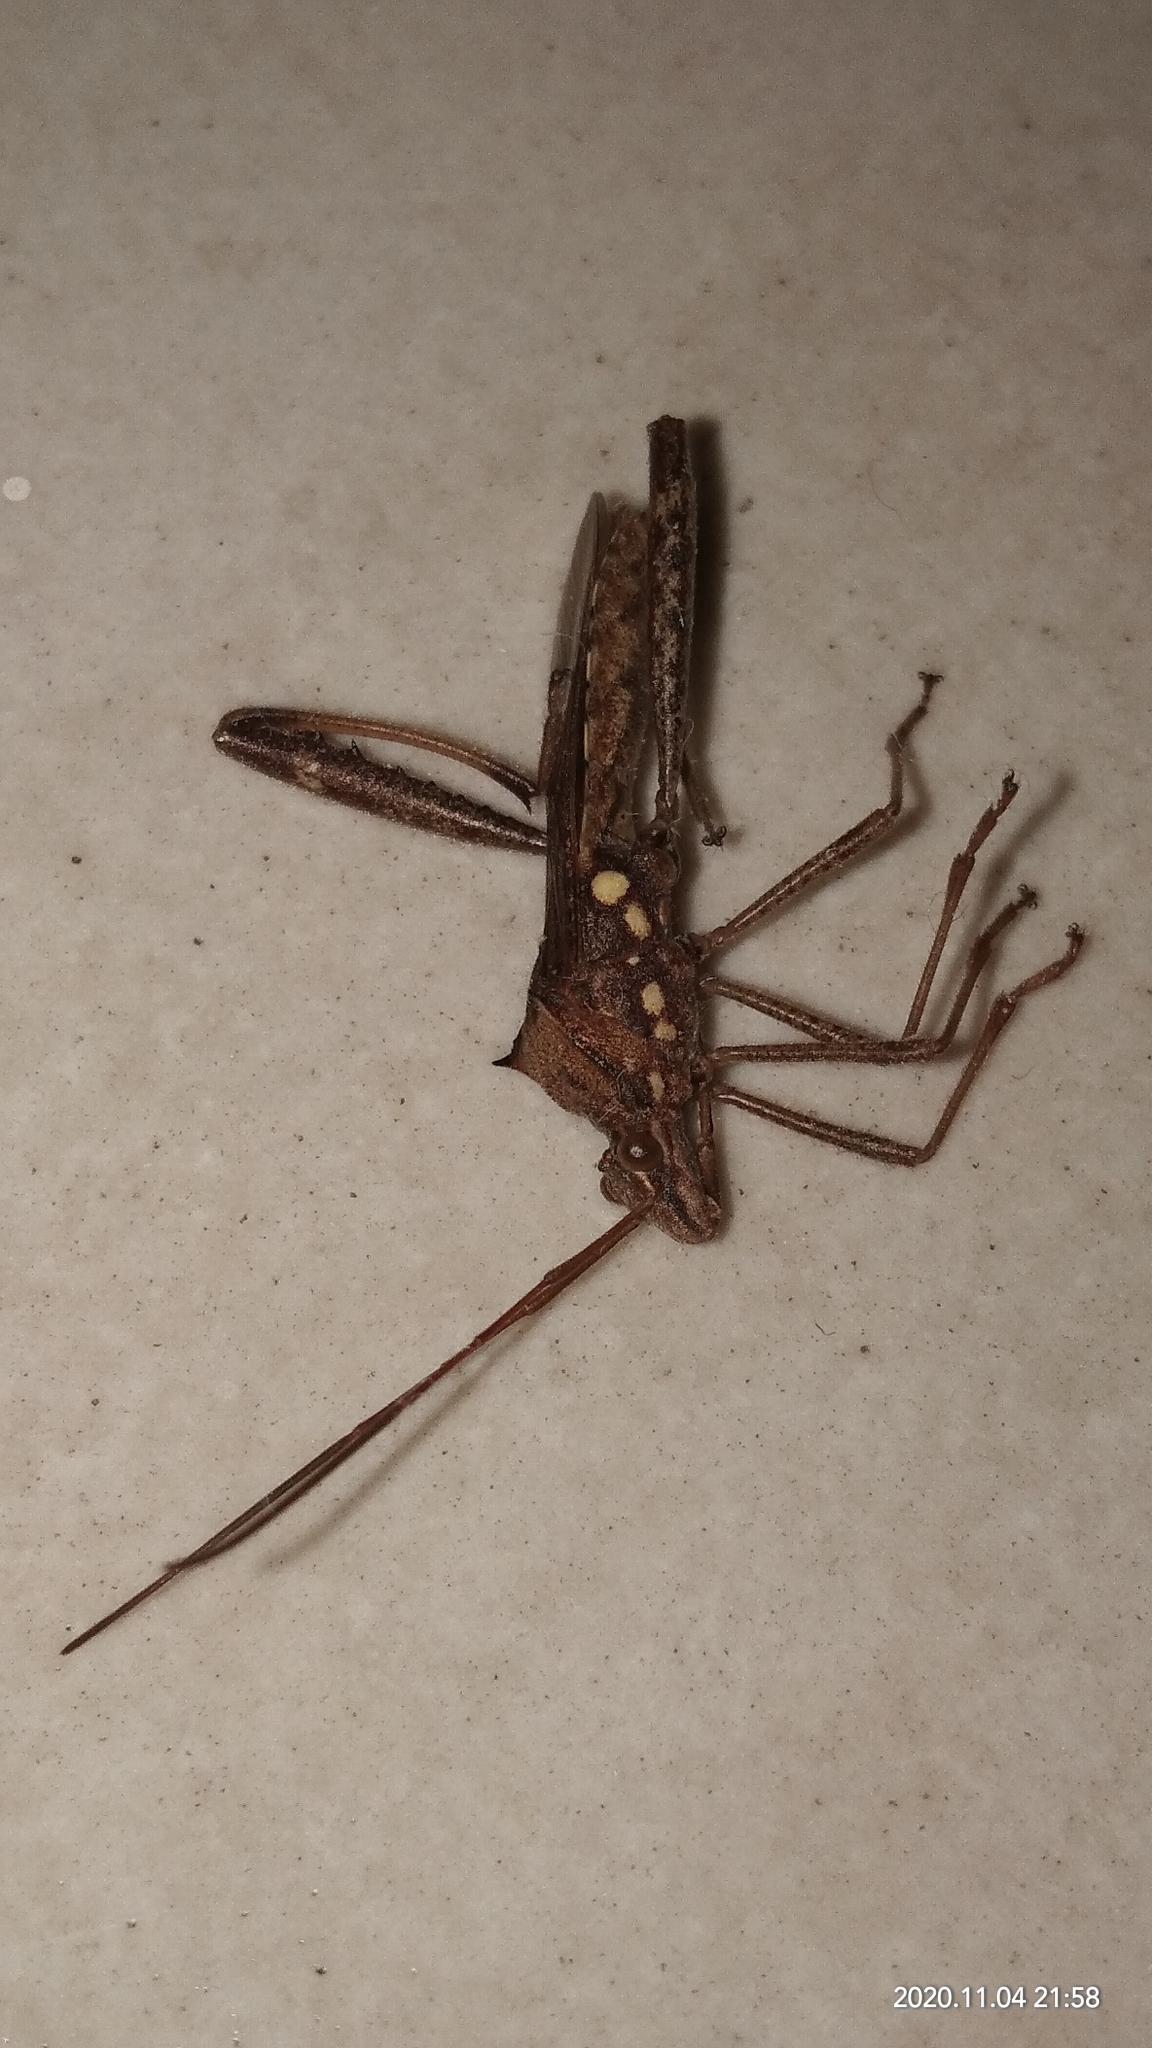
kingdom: Animalia
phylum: Arthropoda
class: Insecta
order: Hemiptera
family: Alydidae
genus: Riptortus
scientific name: Riptortus pedestris
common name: Bean bug
